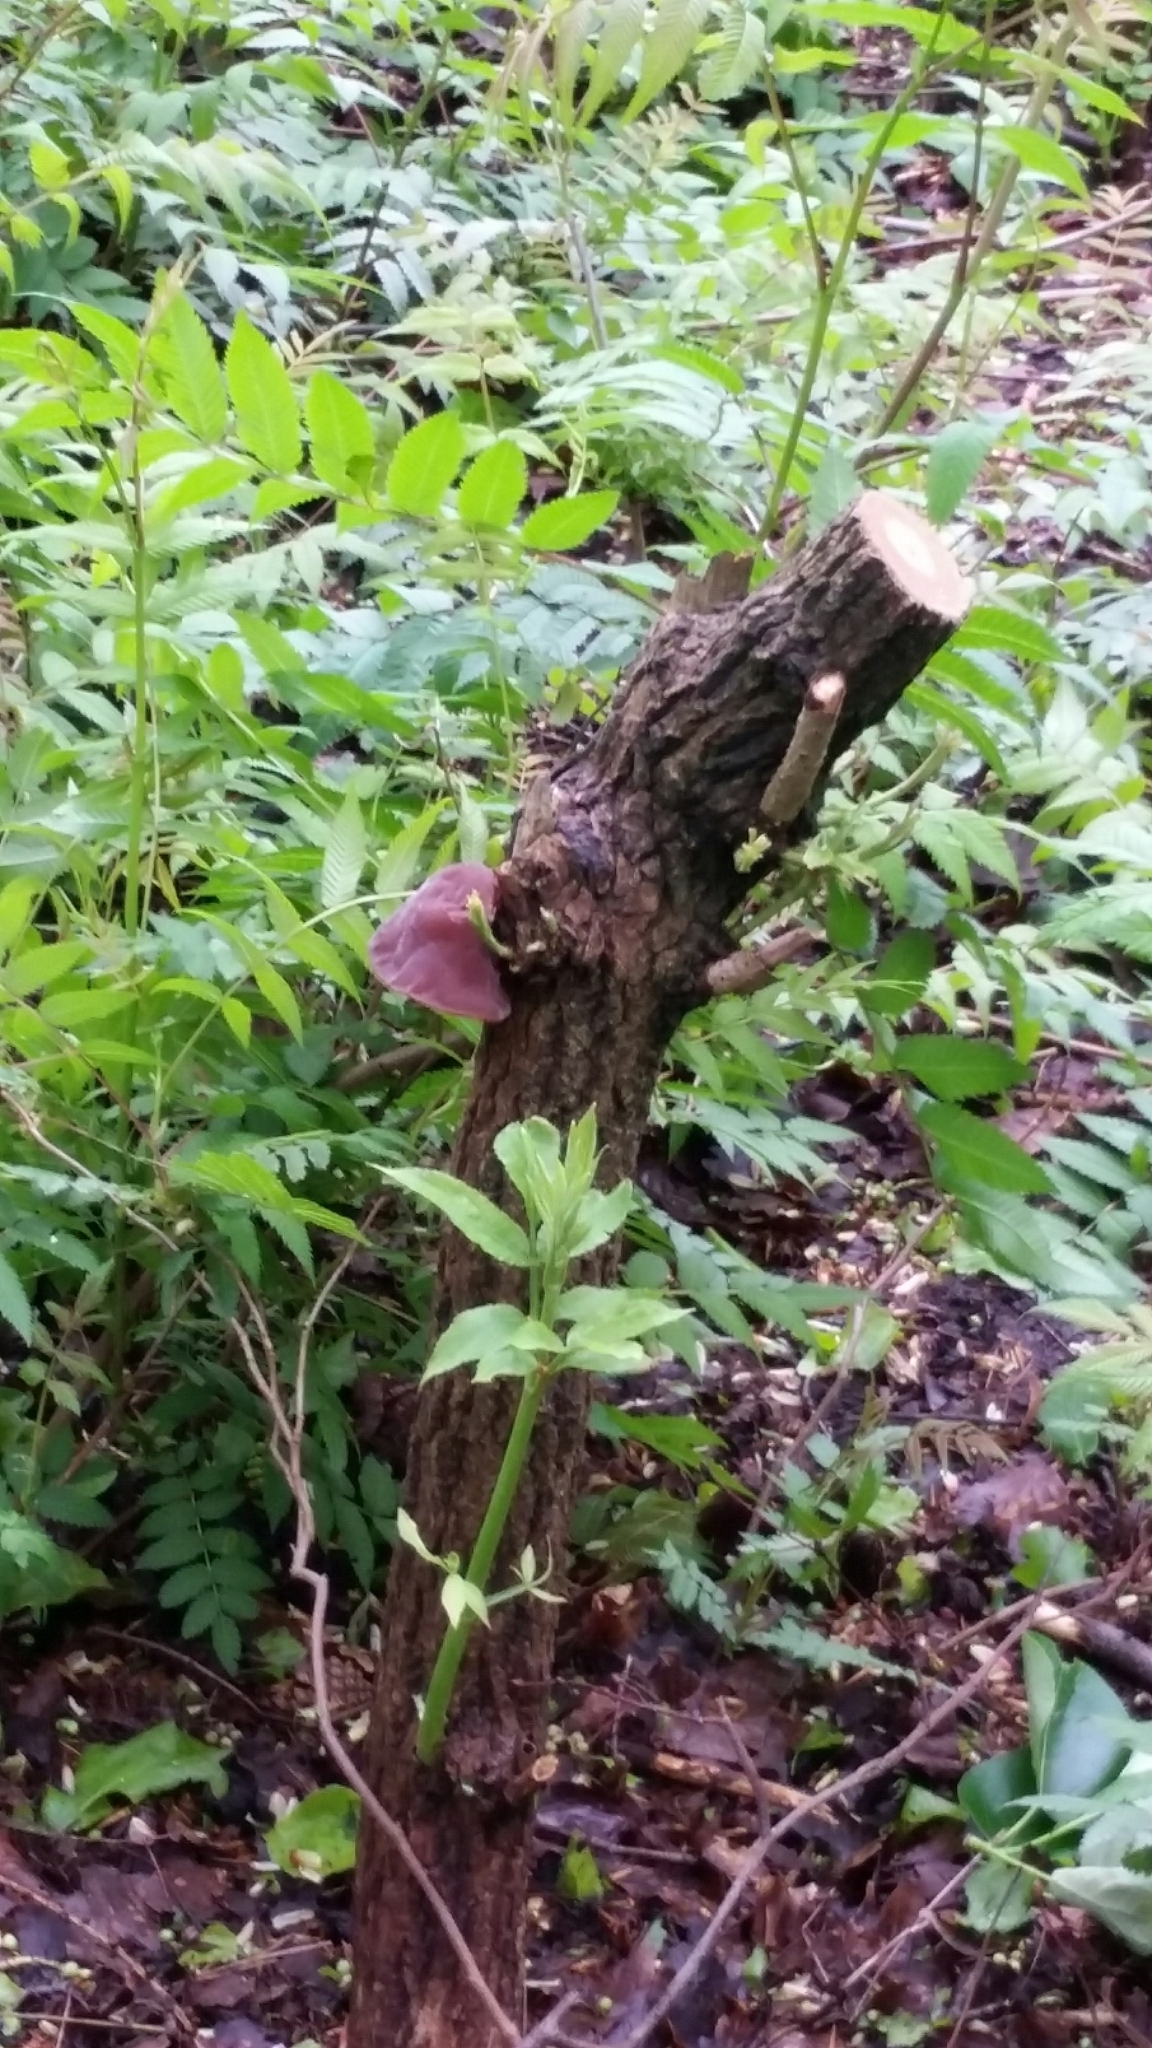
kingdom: Fungi
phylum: Basidiomycota
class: Agaricomycetes
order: Auriculariales
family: Auriculariaceae
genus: Auricularia
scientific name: Auricularia auricula-judae
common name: Jelly ear
